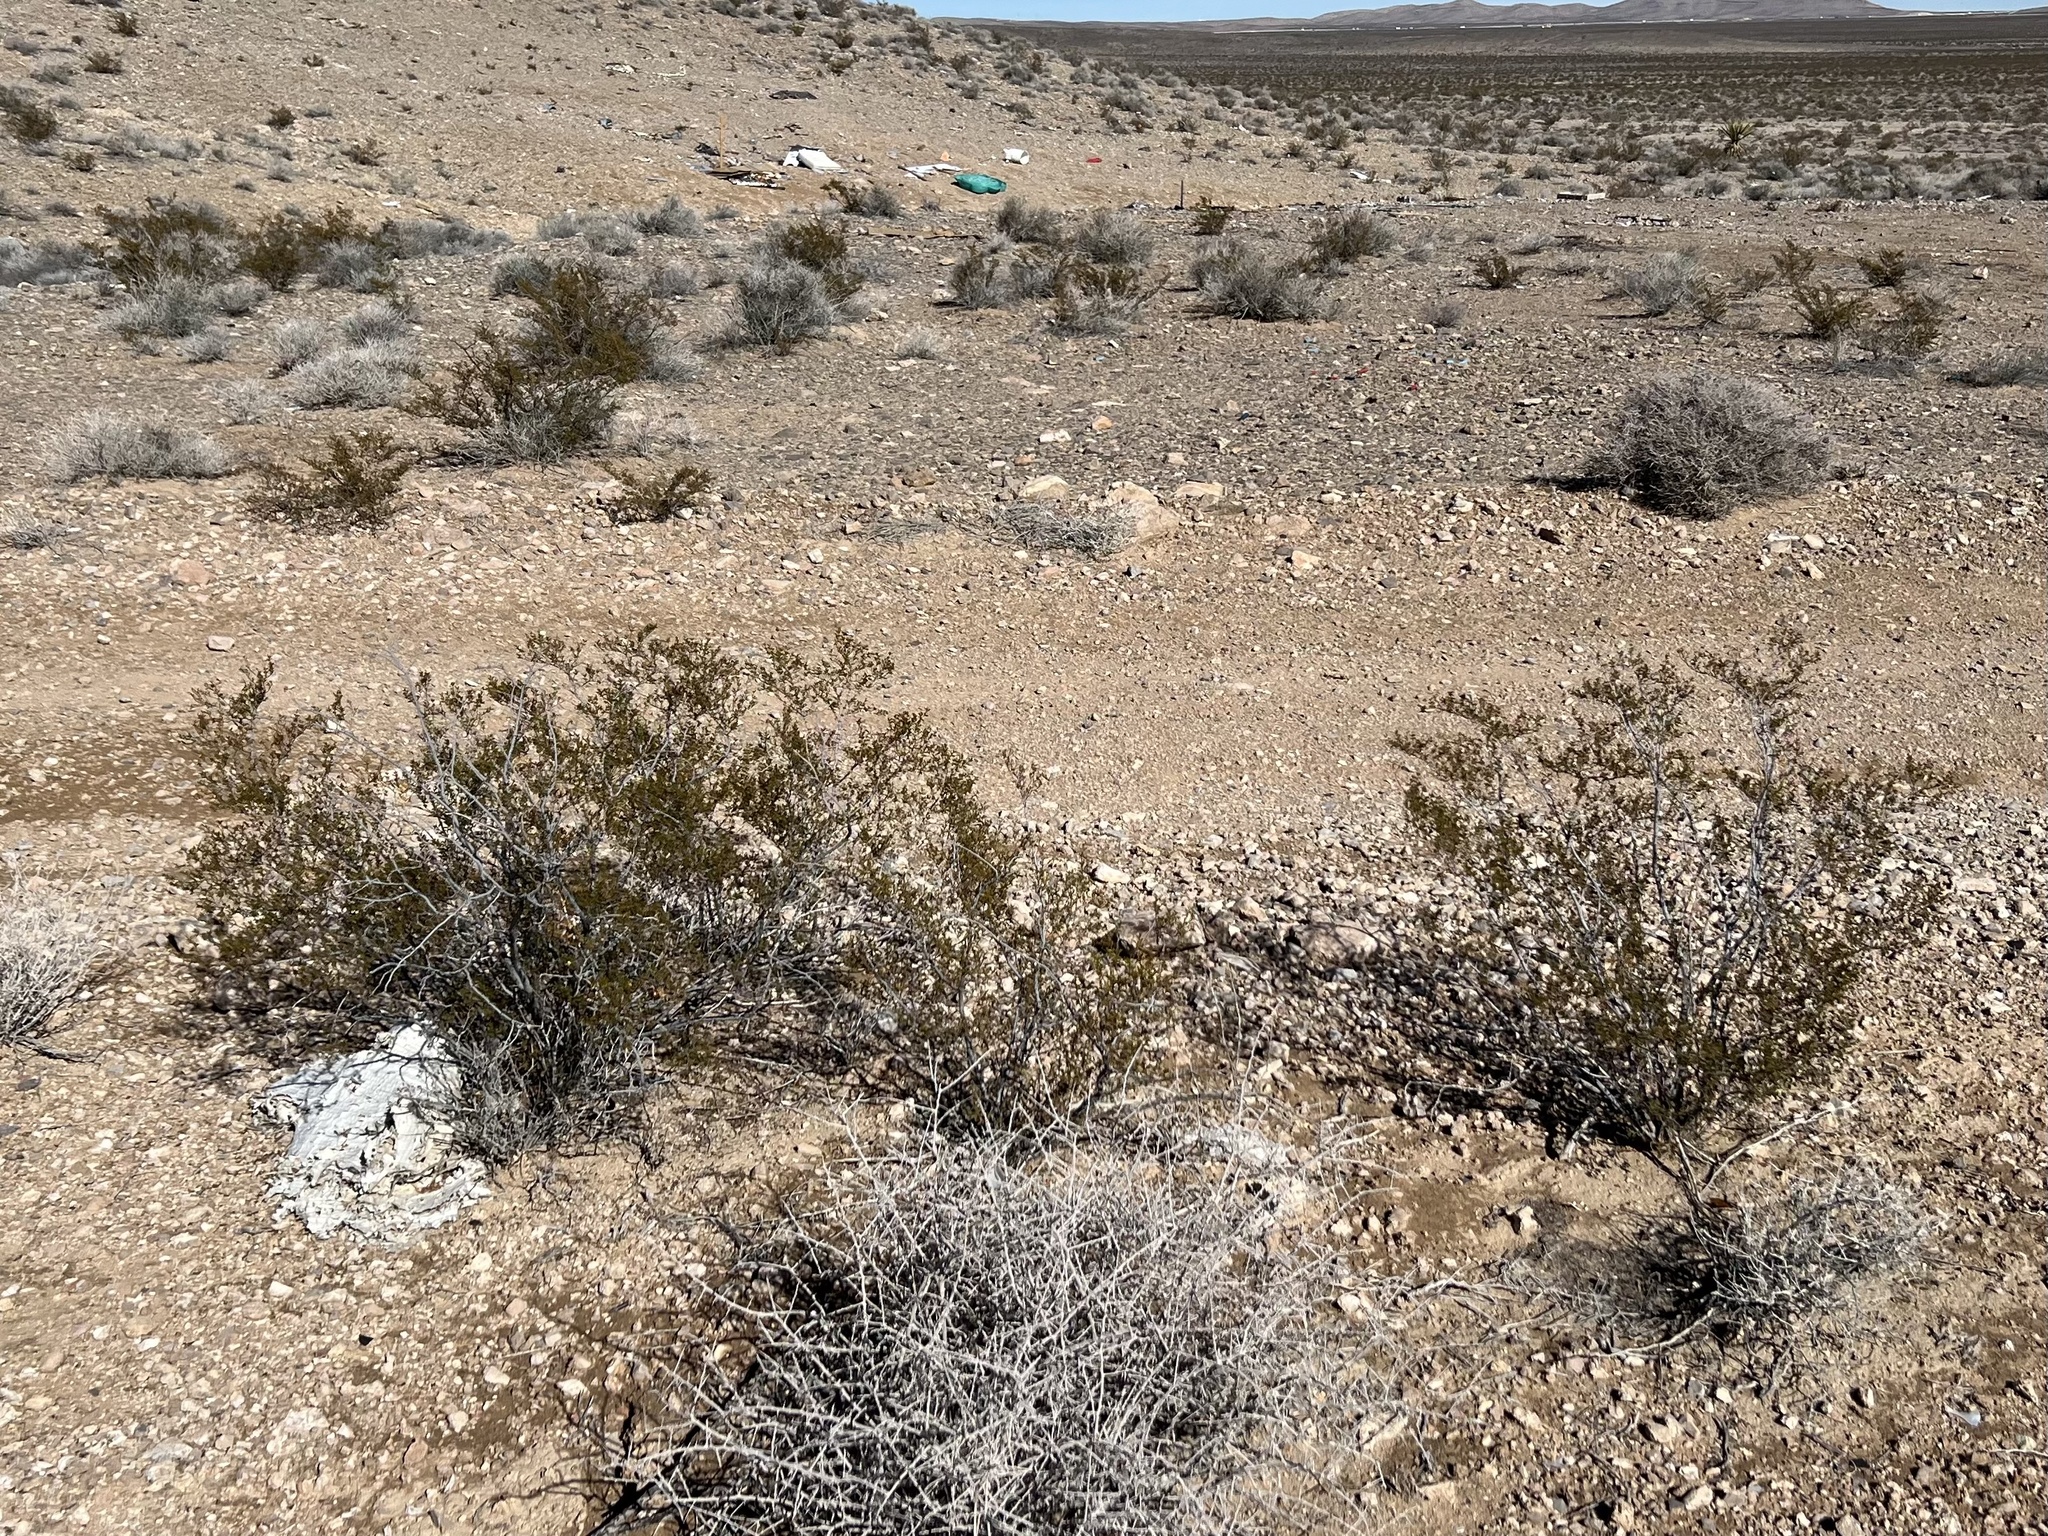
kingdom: Plantae
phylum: Tracheophyta
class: Magnoliopsida
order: Zygophyllales
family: Zygophyllaceae
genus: Larrea
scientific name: Larrea tridentata
